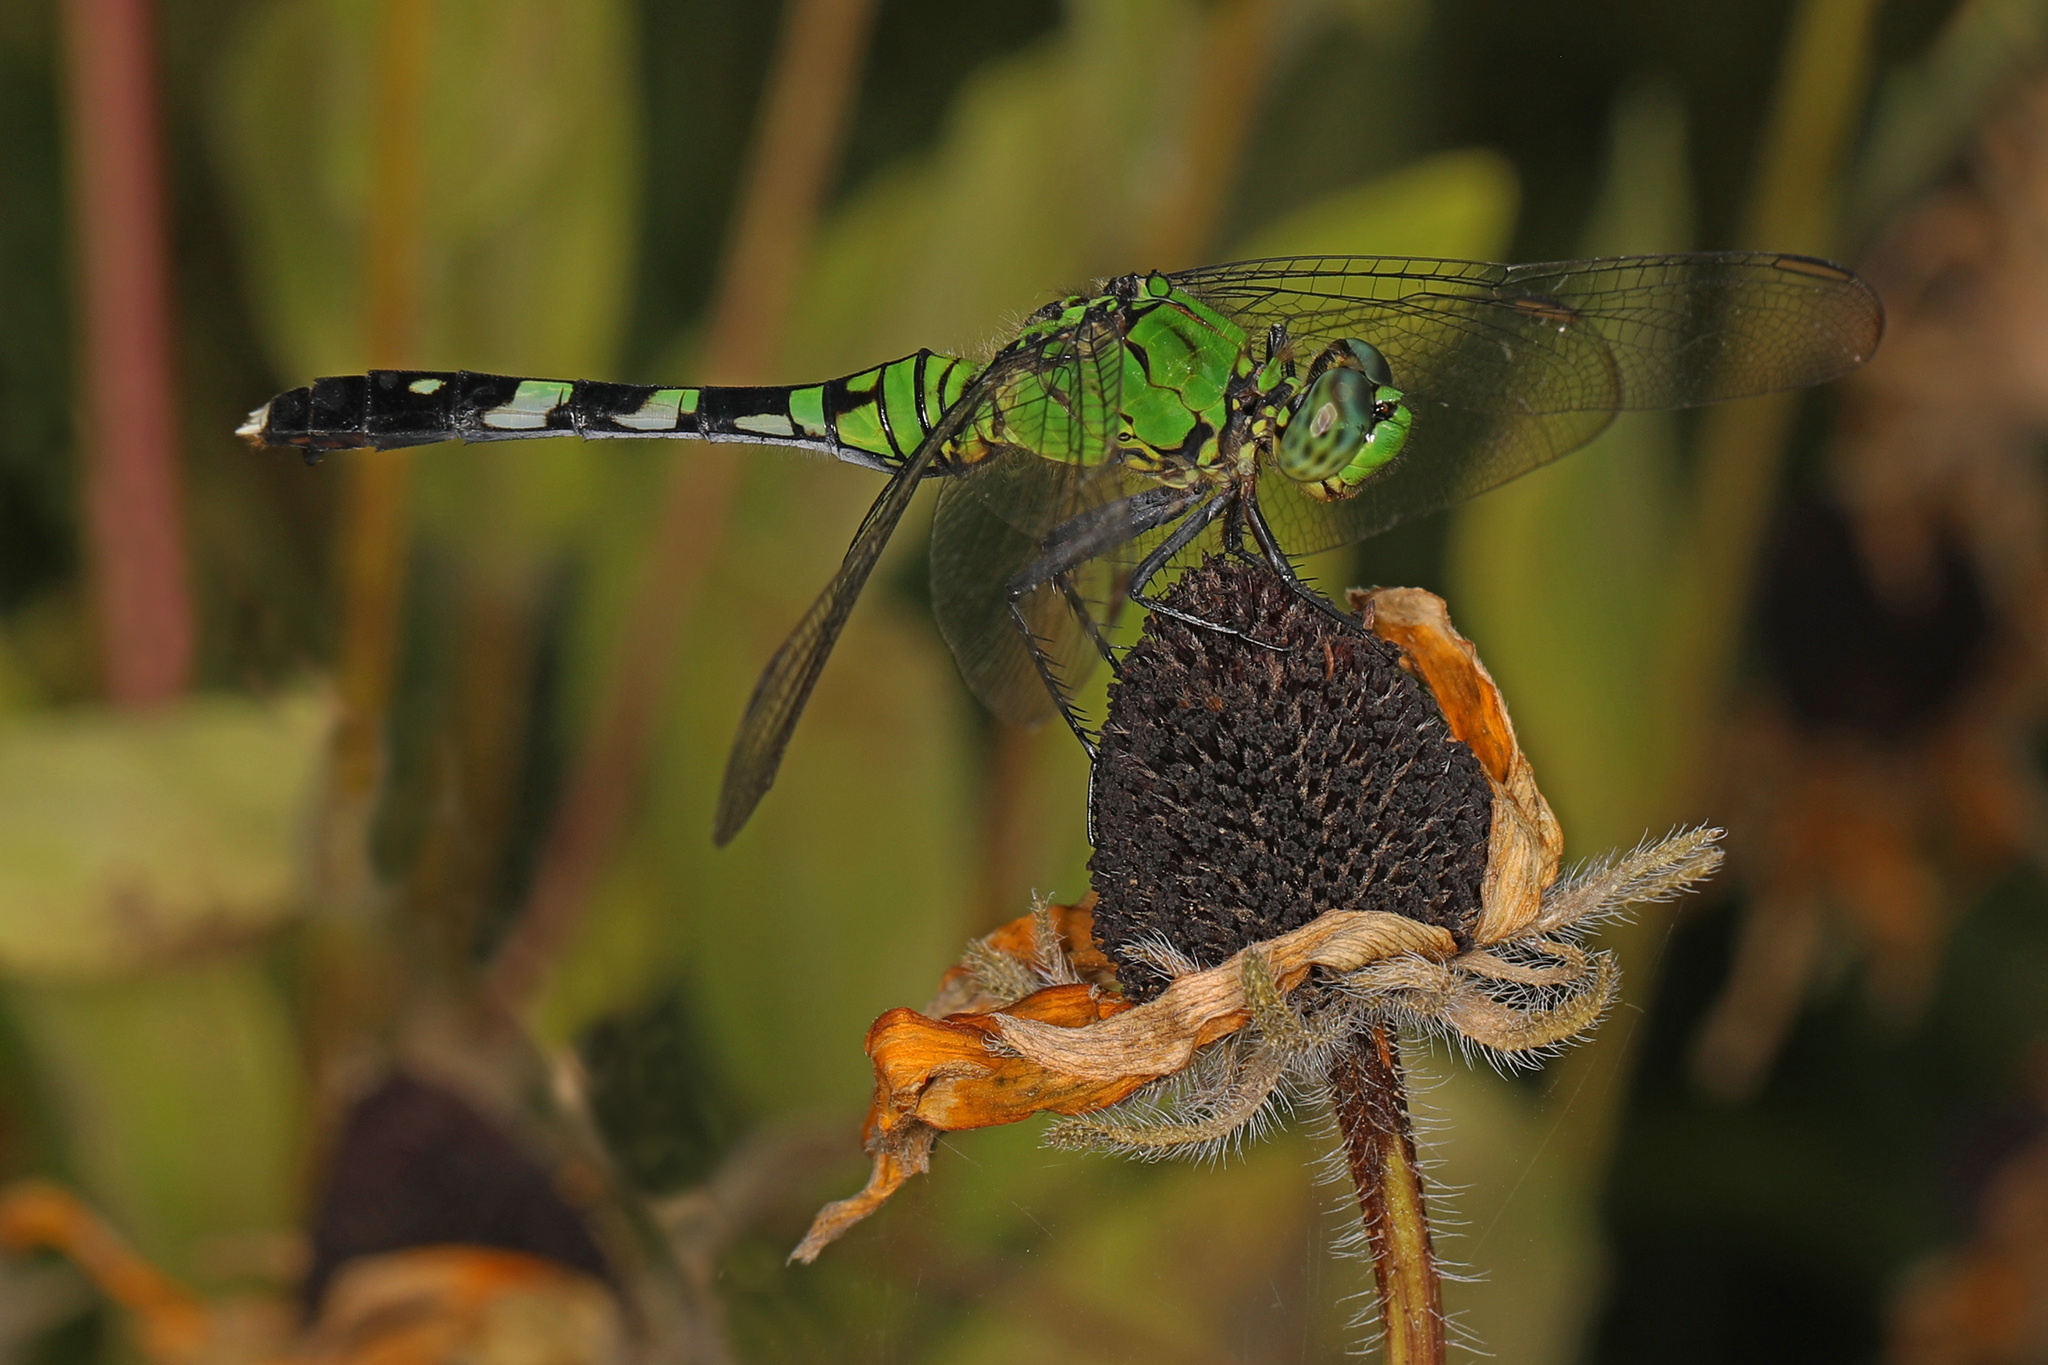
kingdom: Animalia
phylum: Arthropoda
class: Insecta
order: Odonata
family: Libellulidae
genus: Erythemis
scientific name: Erythemis simplicicollis
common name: Eastern pondhawk
